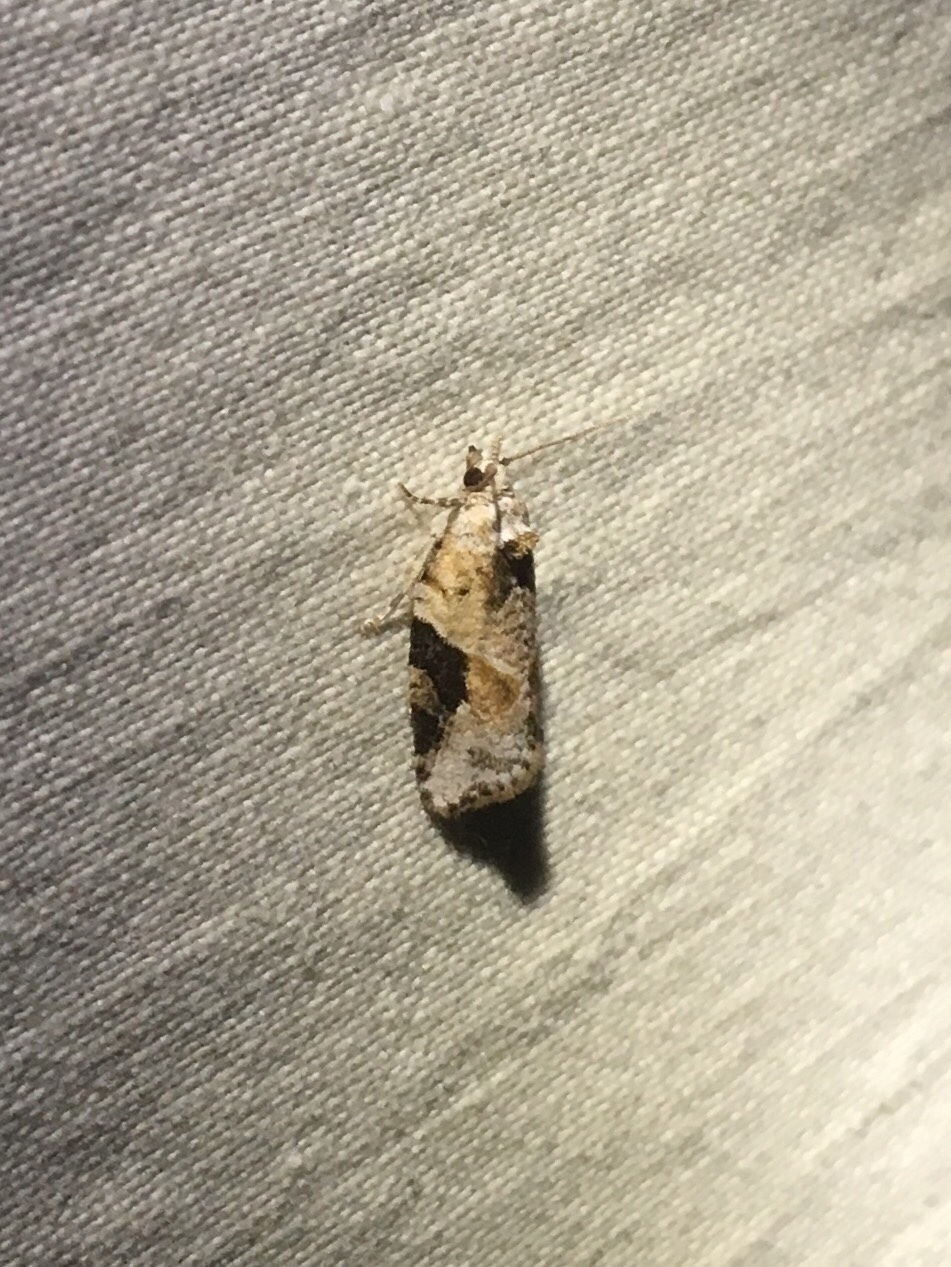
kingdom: Animalia
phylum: Arthropoda
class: Insecta
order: Lepidoptera
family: Tortricidae
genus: Argyrotaenia
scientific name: Argyrotaenia mariana
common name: Gray-banded leafroller moth
